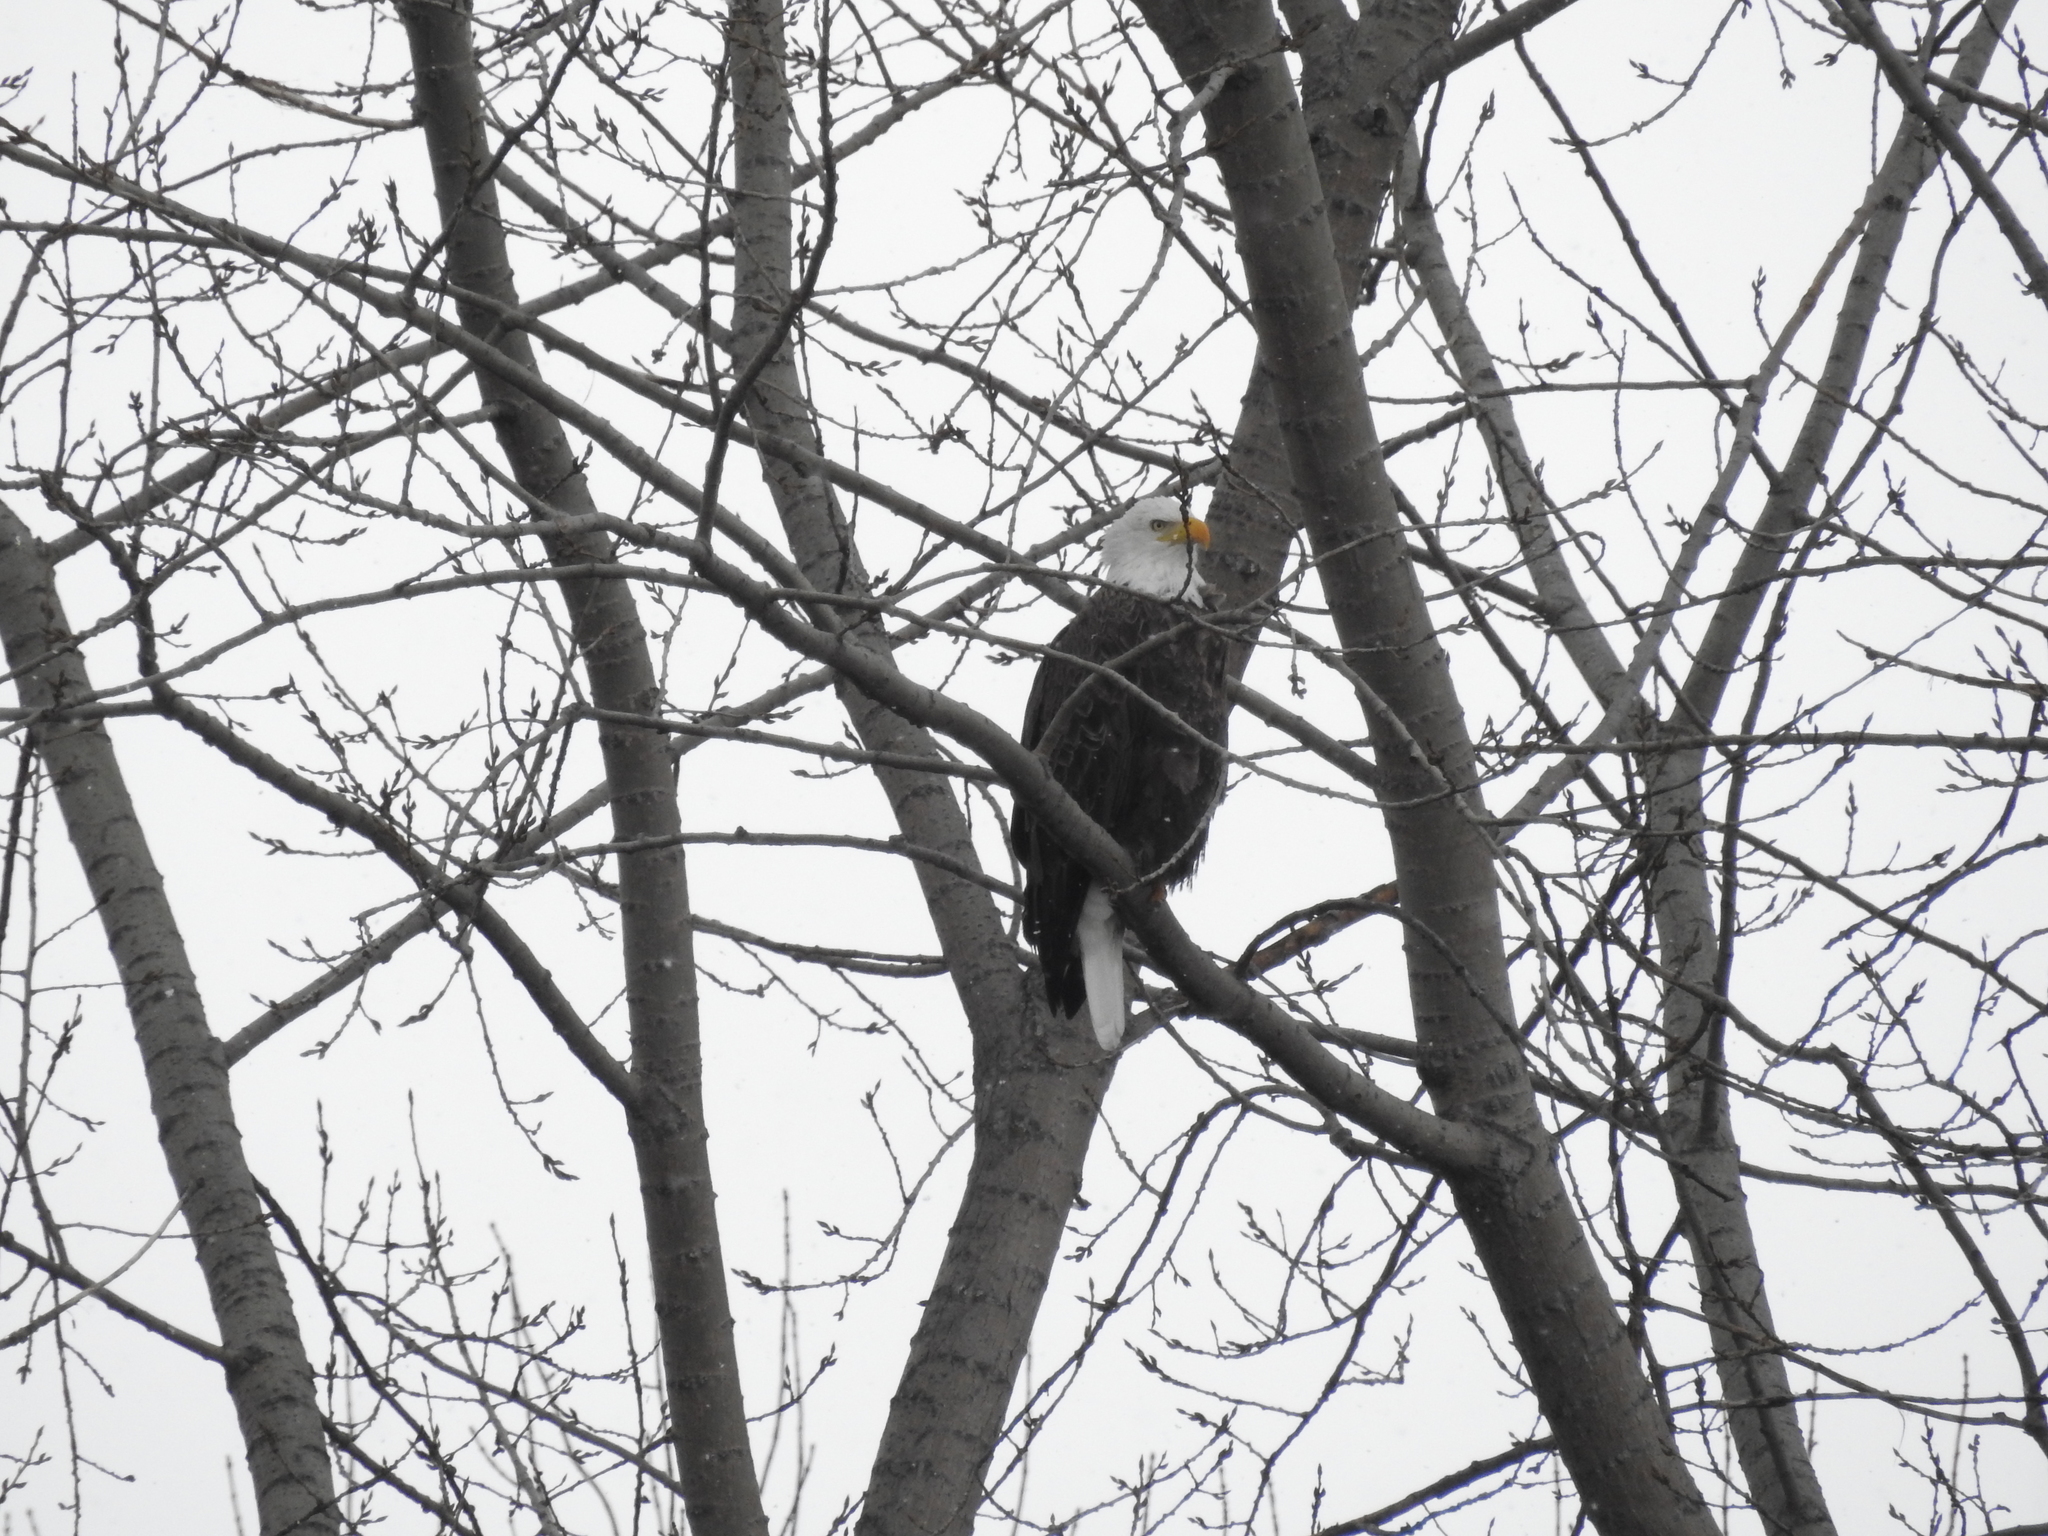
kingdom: Animalia
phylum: Chordata
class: Aves
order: Accipitriformes
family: Accipitridae
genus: Haliaeetus
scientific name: Haliaeetus leucocephalus
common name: Bald eagle
